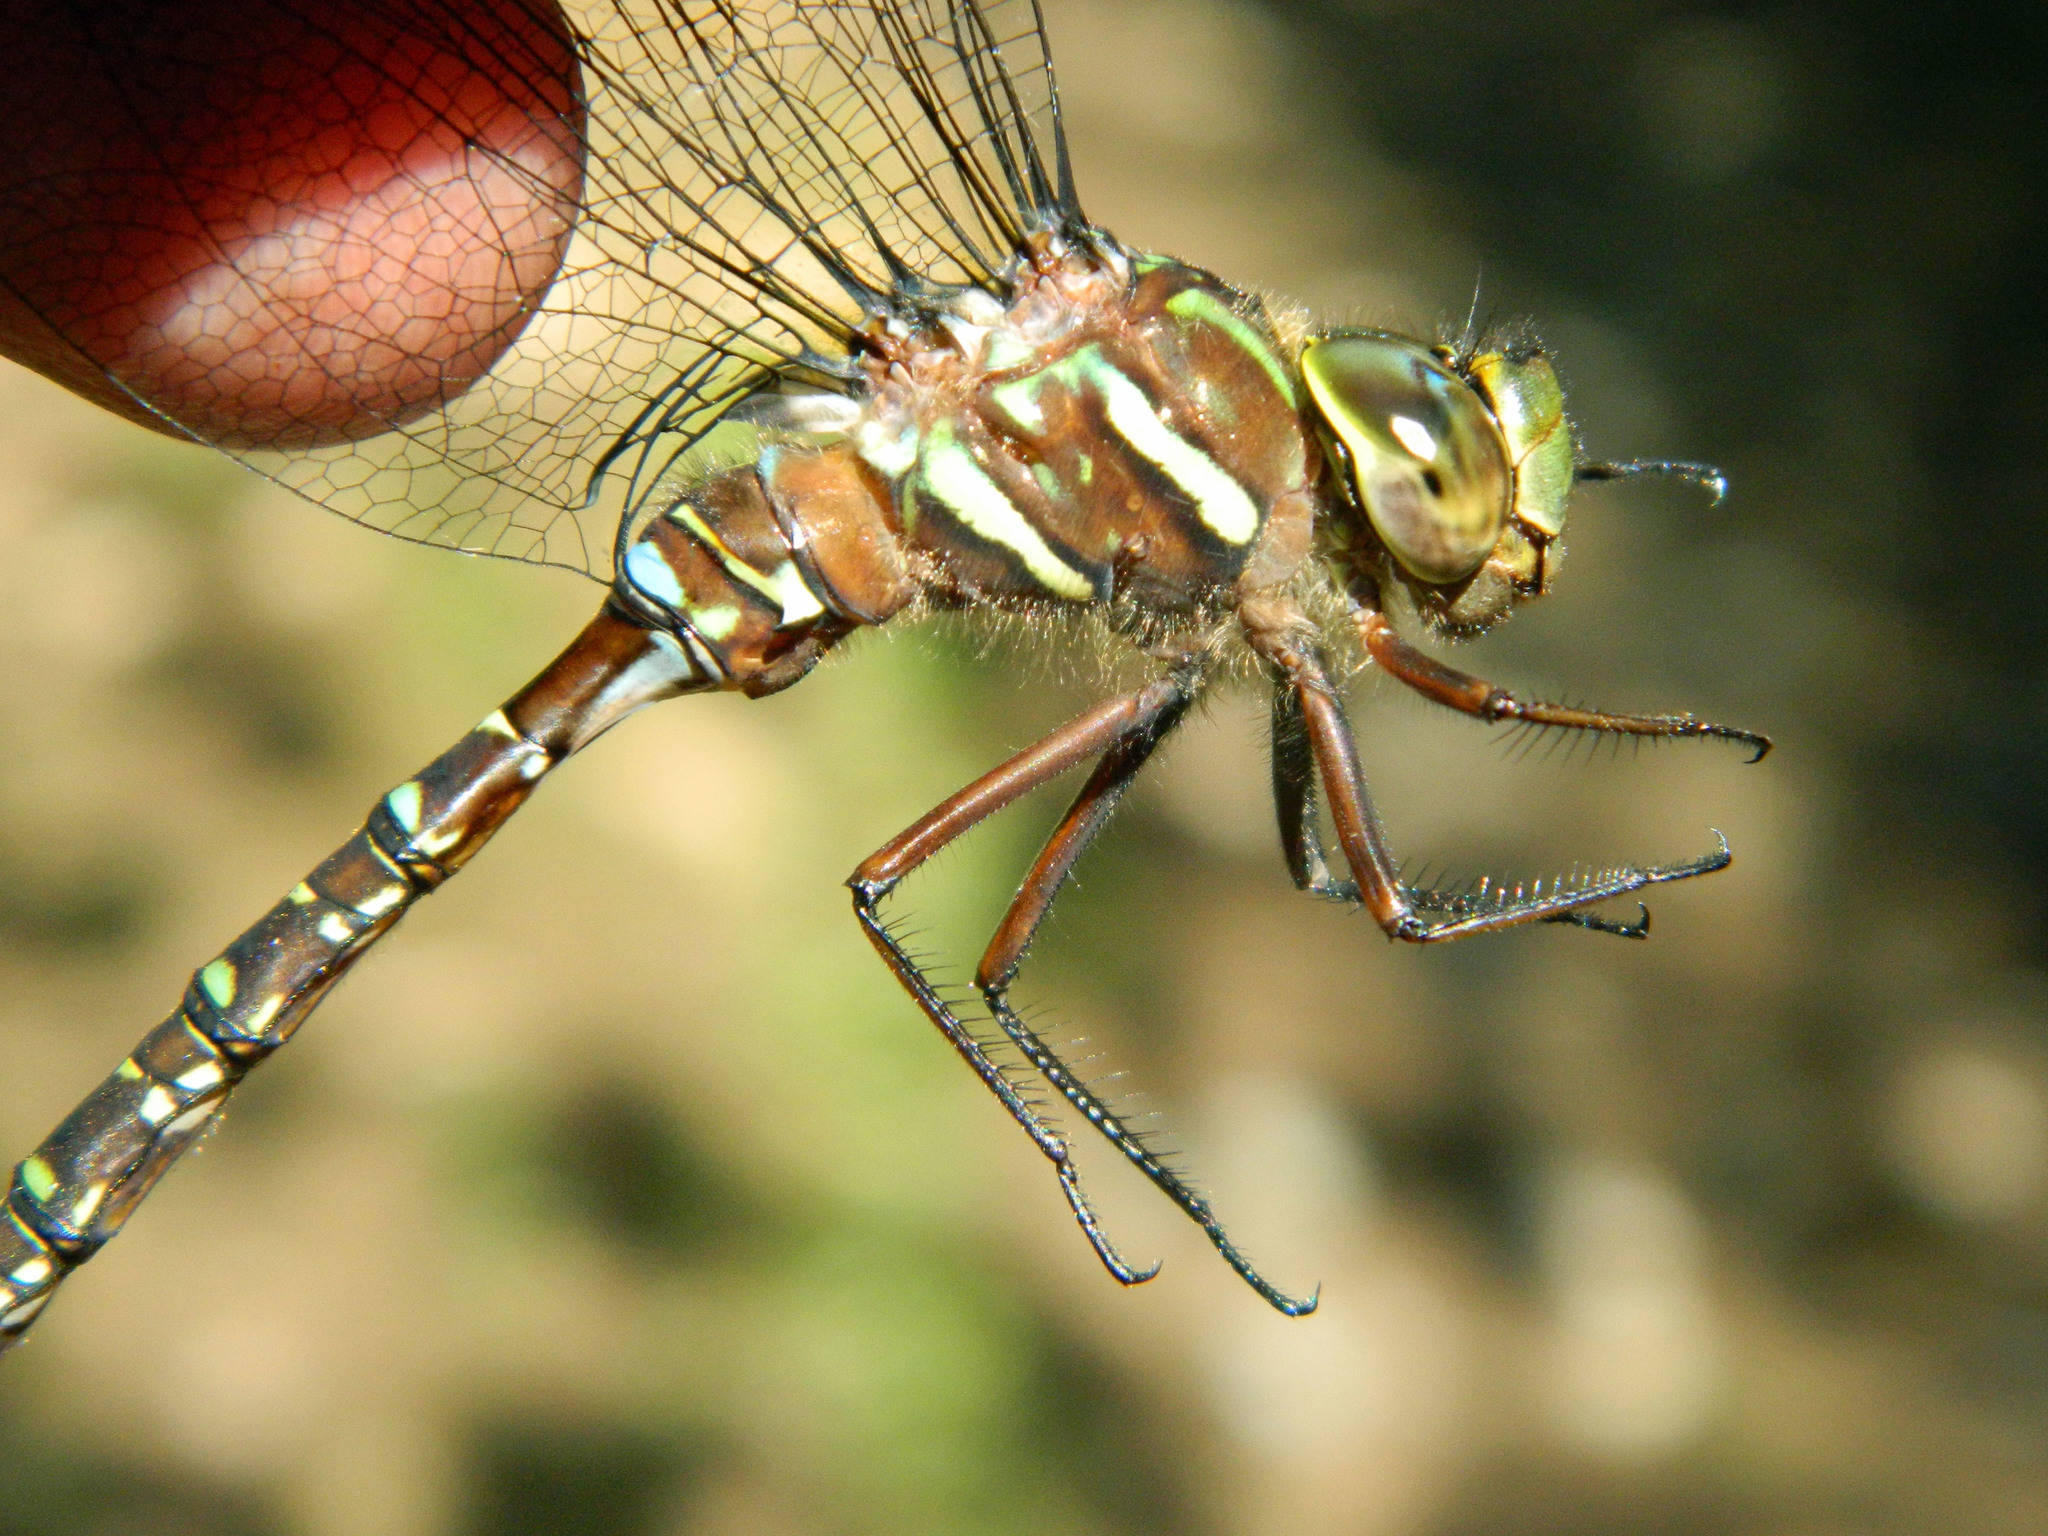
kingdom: Animalia
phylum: Arthropoda
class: Insecta
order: Odonata
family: Aeshnidae
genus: Aeshna
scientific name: Aeshna umbrosa
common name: Shadow darner
